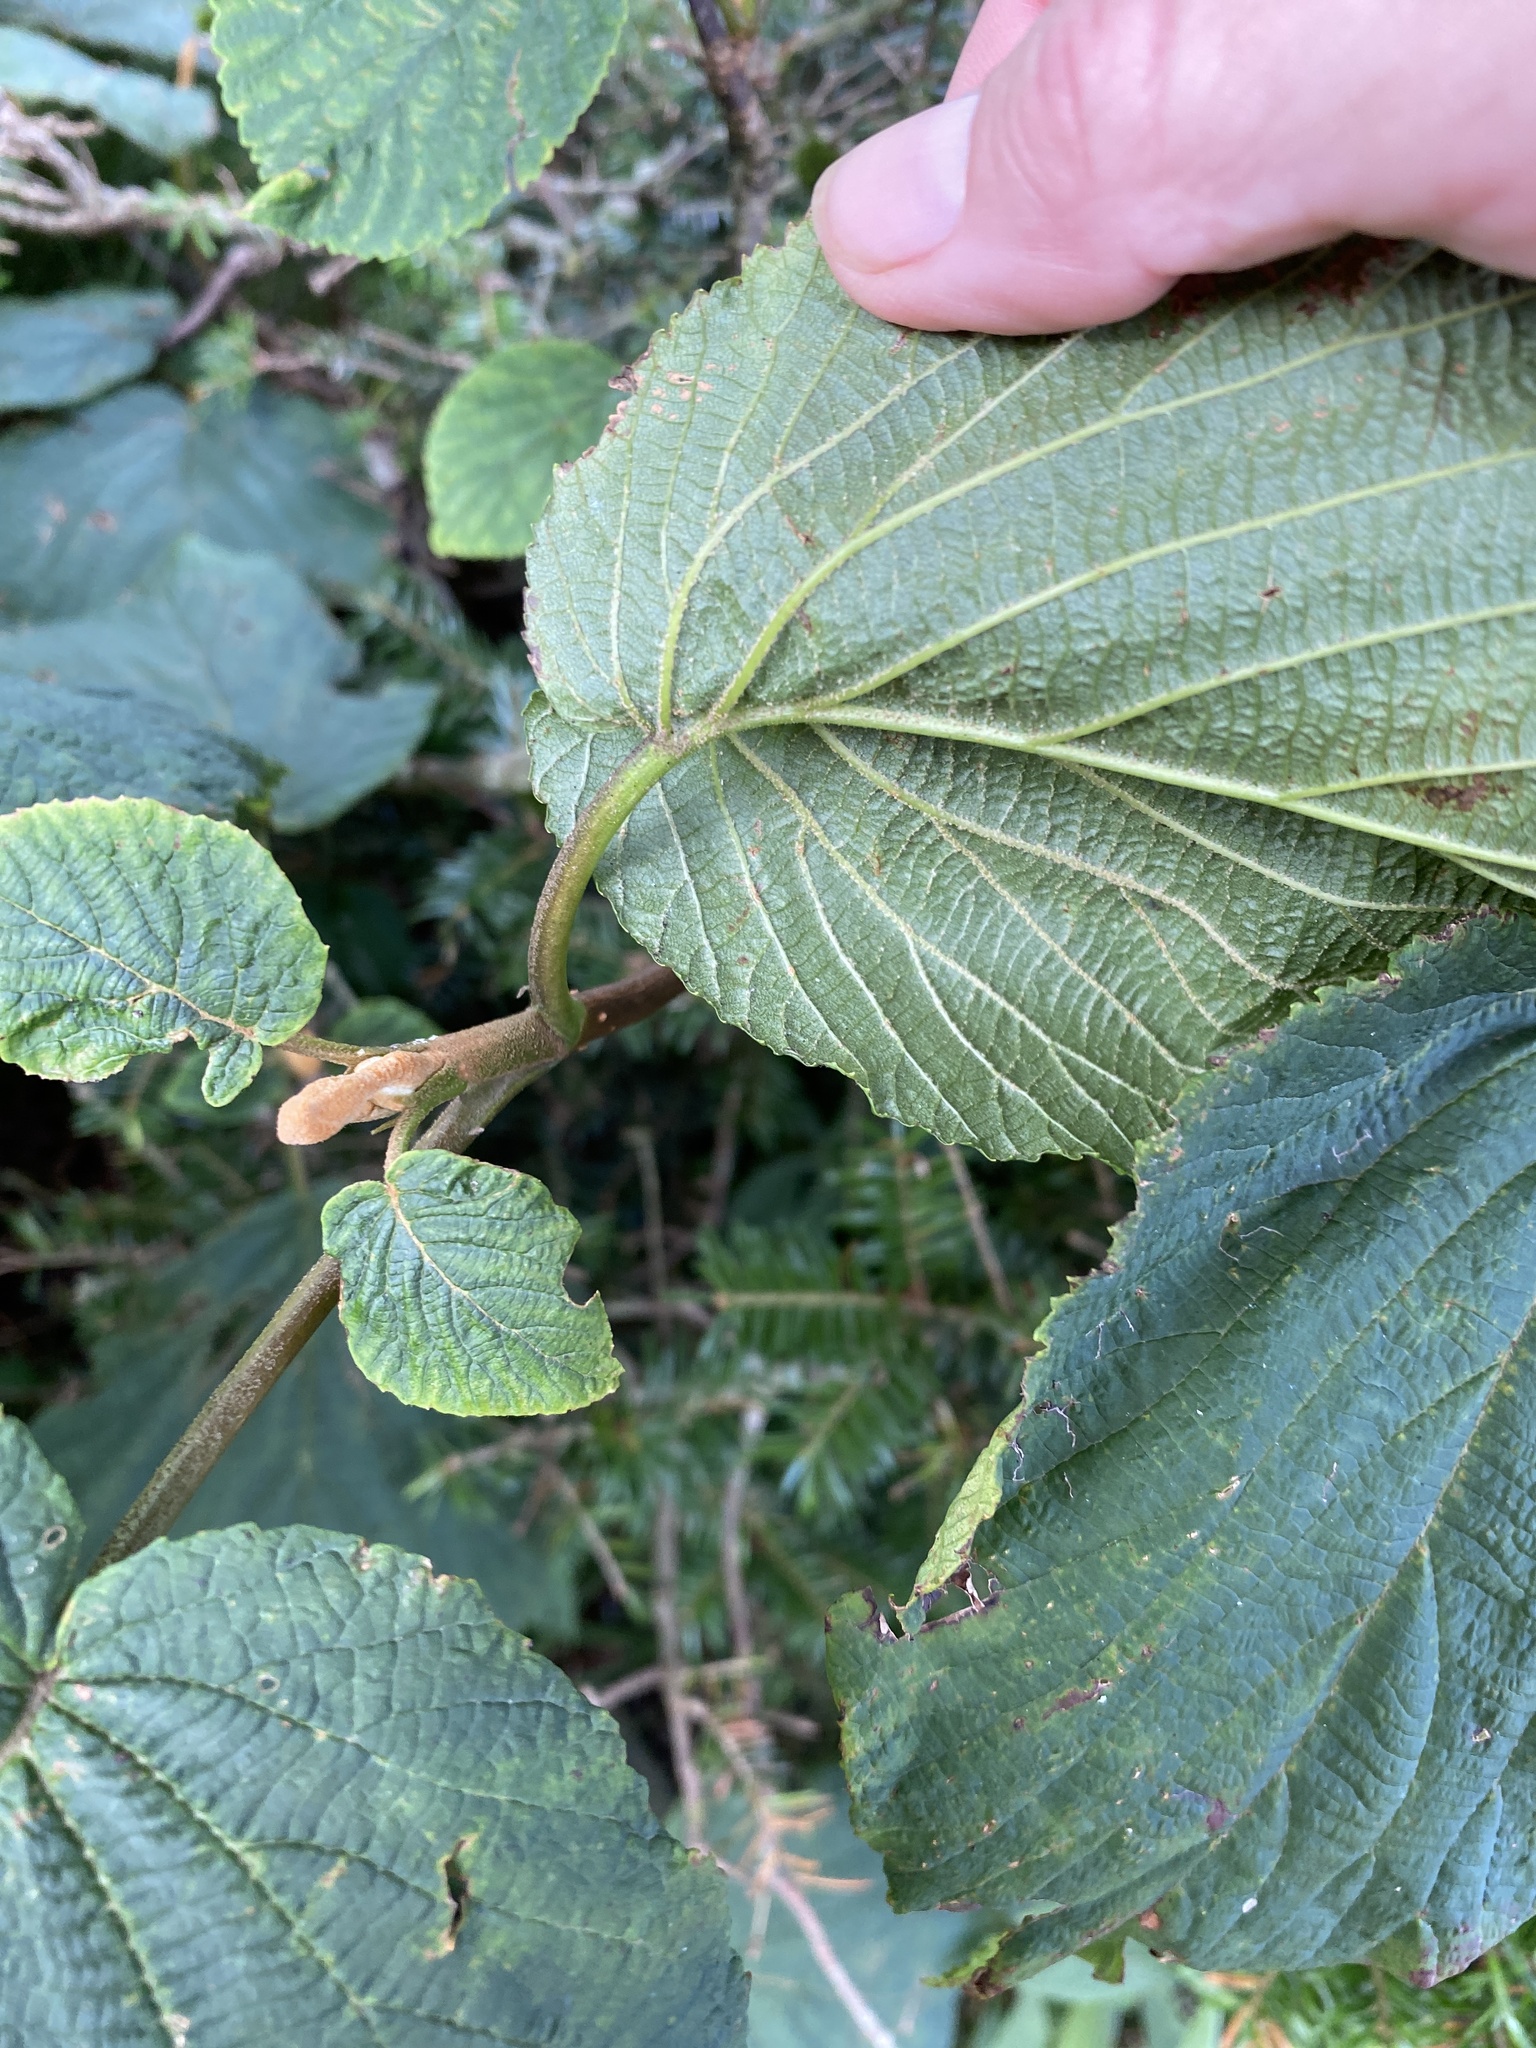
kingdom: Plantae
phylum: Tracheophyta
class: Magnoliopsida
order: Dipsacales
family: Viburnaceae
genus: Viburnum
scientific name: Viburnum lantanoides
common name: Hobblebush
